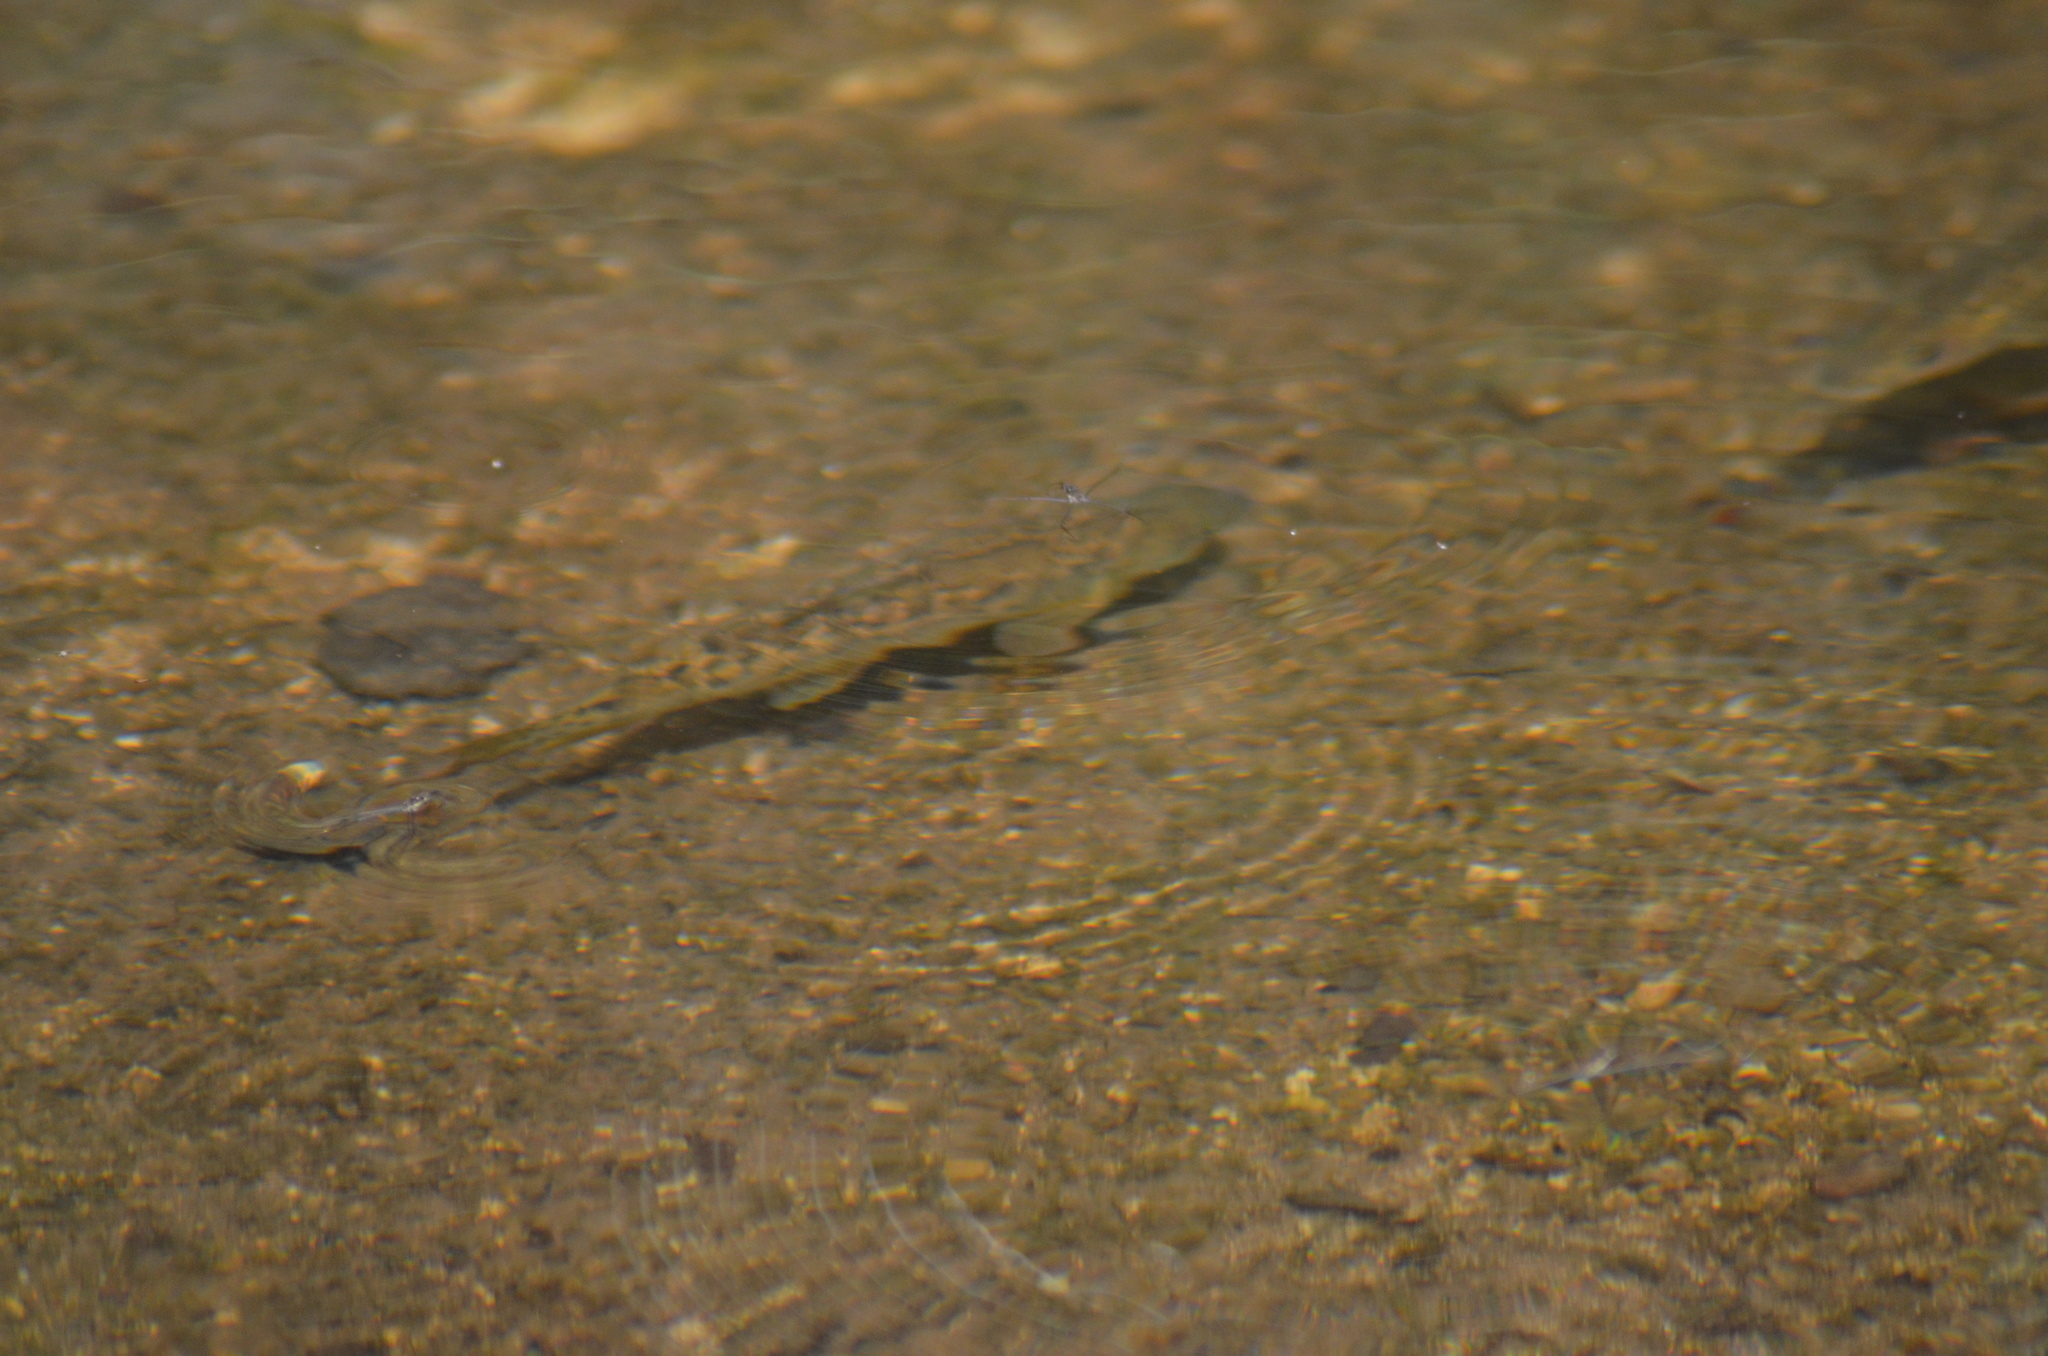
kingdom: Animalia
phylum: Chordata
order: Cypriniformes
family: Cyprinidae
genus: Barbus
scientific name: Barbus meridionalis
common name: Mediterranean barbel
